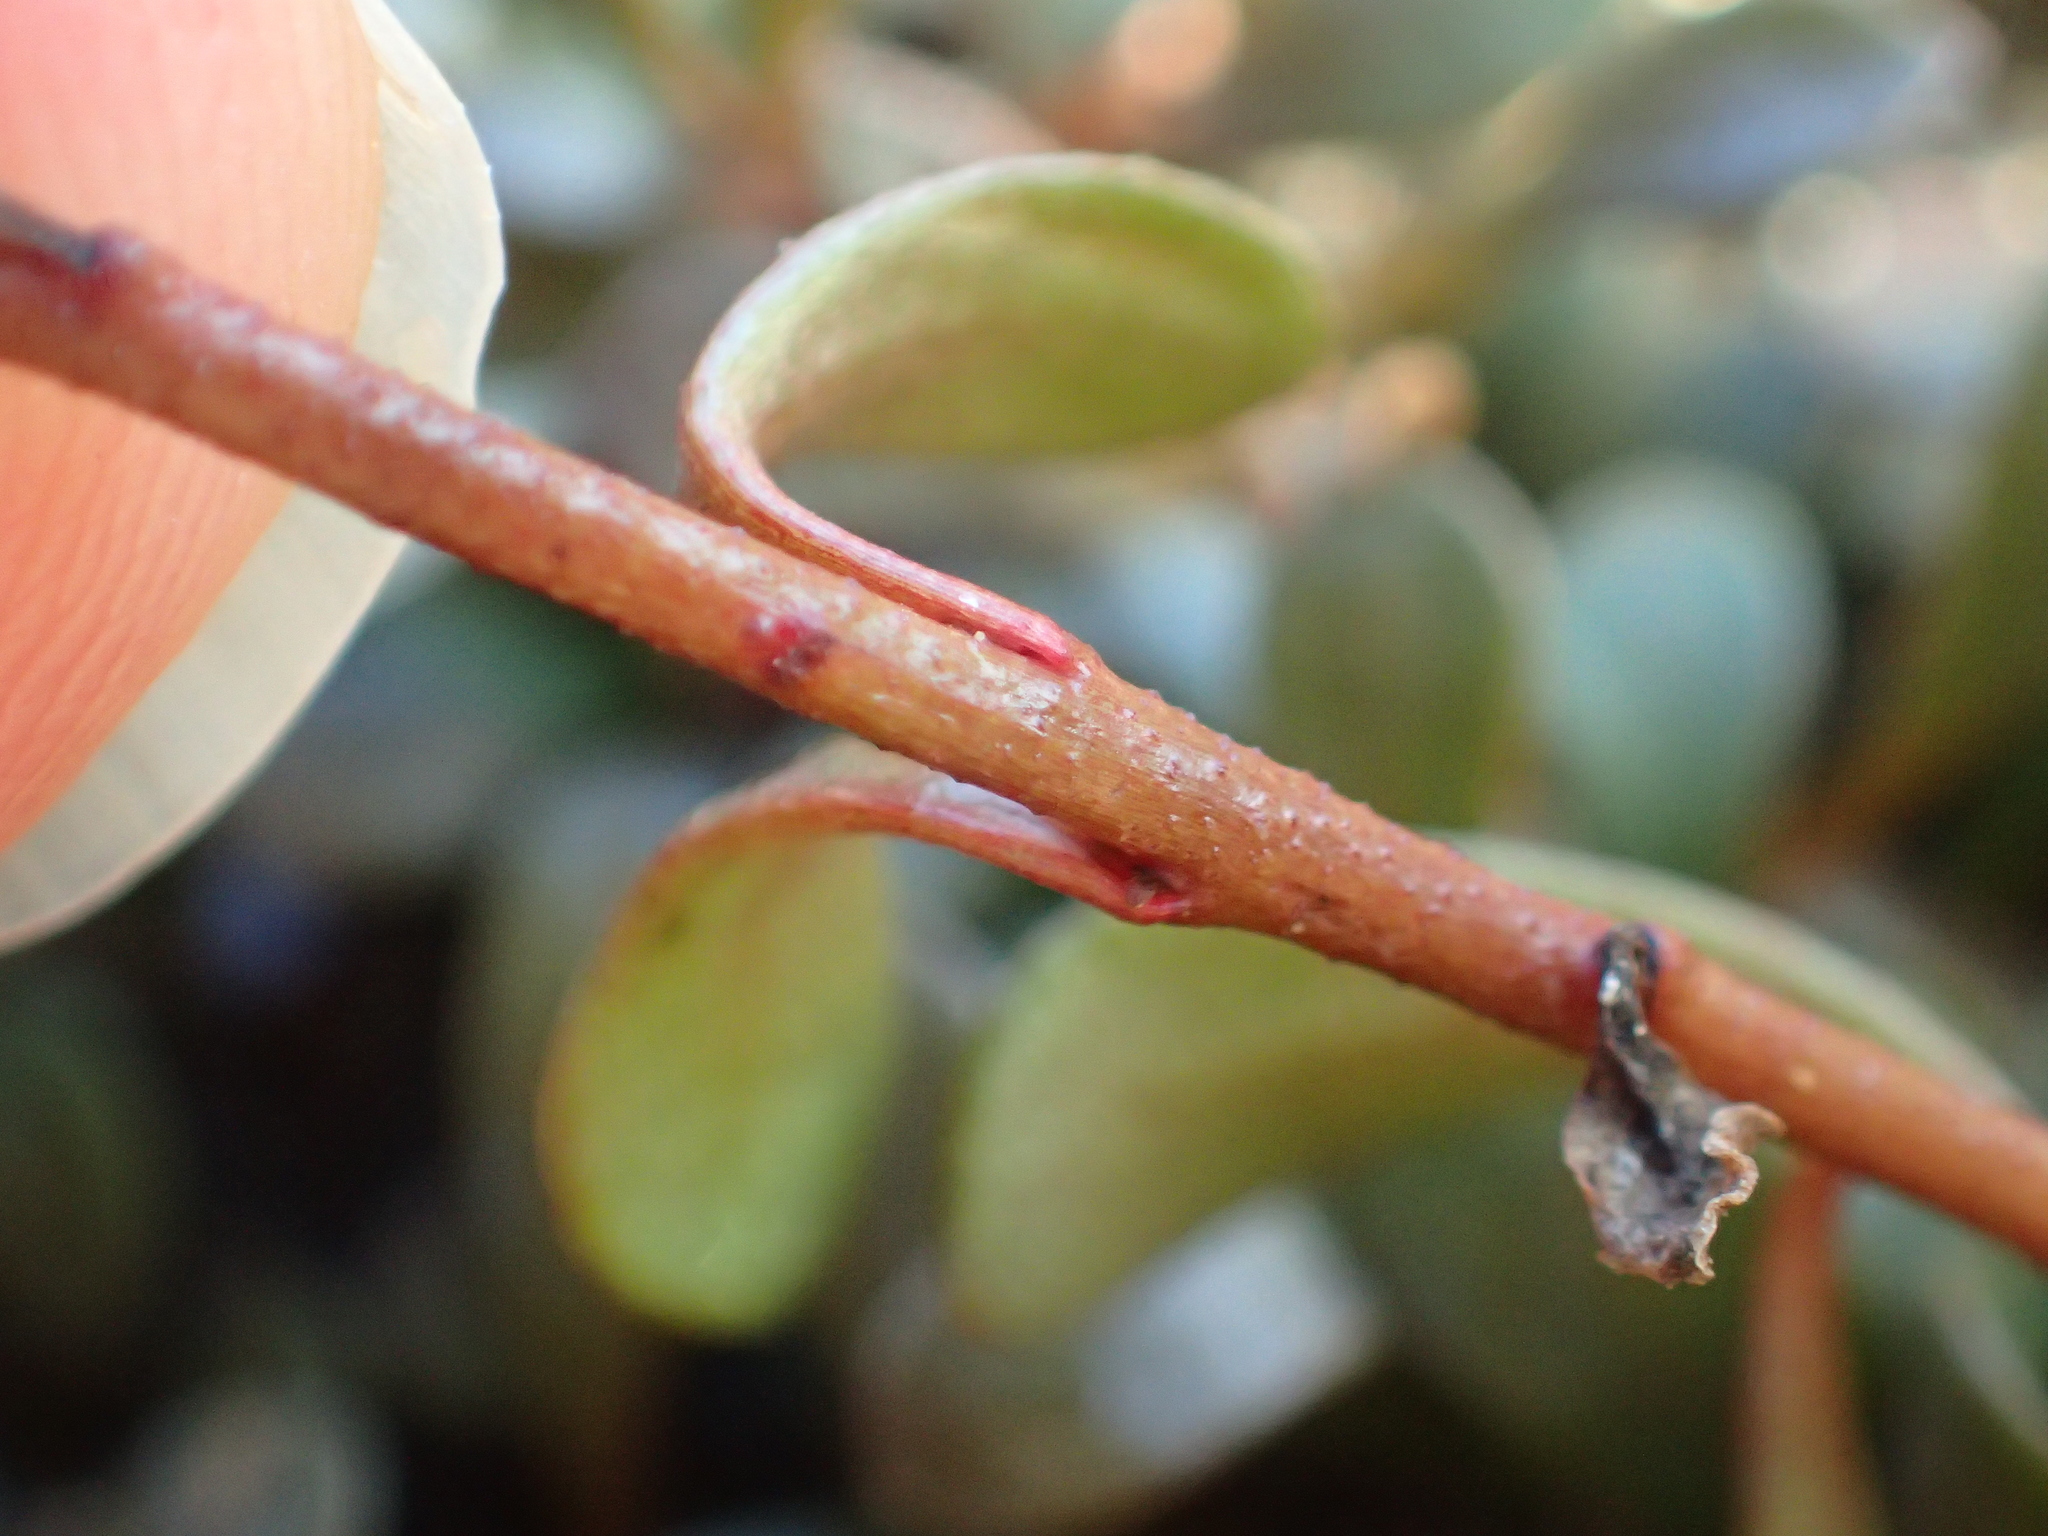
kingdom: Plantae
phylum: Tracheophyta
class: Magnoliopsida
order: Ericales
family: Primulaceae
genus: Samolus
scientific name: Samolus repens
